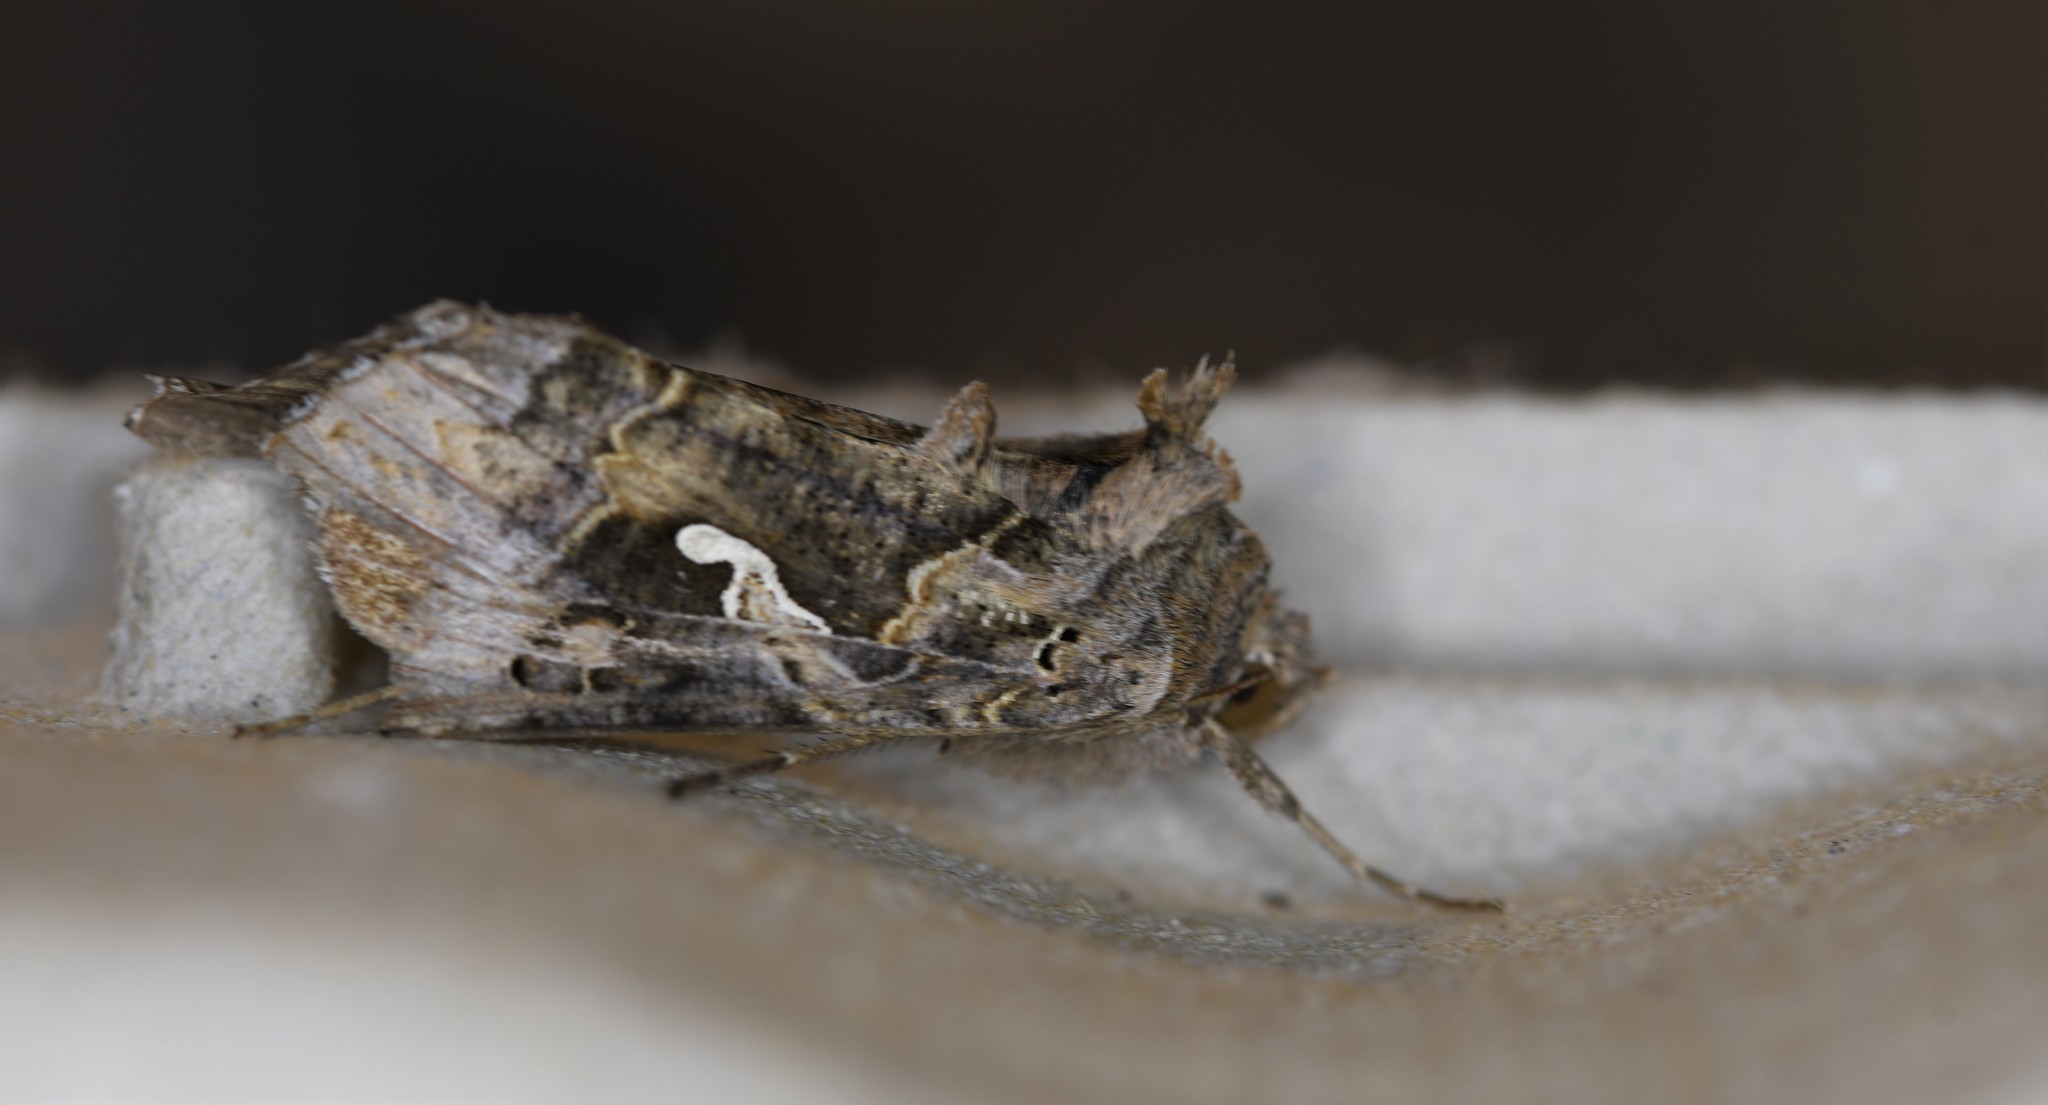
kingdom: Animalia
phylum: Arthropoda
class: Insecta
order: Lepidoptera
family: Noctuidae
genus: Autographa
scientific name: Autographa gamma
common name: Silver y
